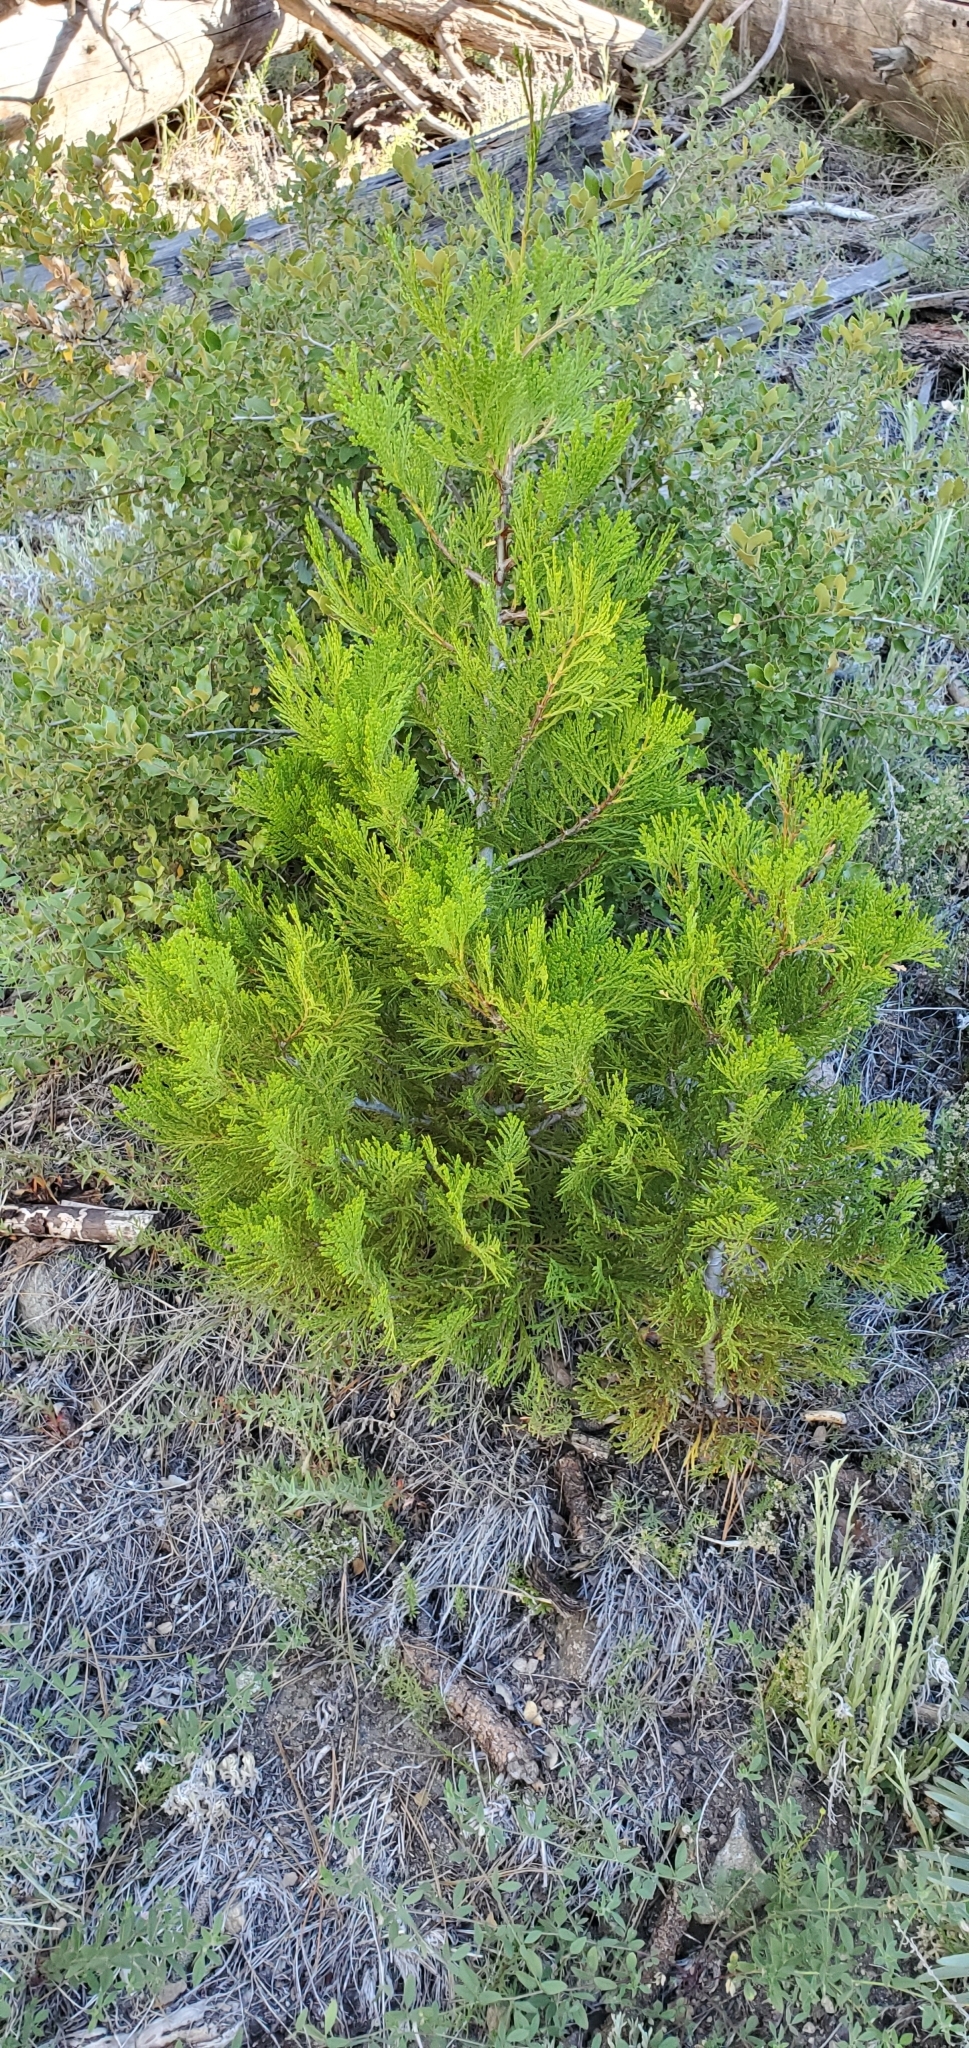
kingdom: Plantae
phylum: Tracheophyta
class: Pinopsida
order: Pinales
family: Cupressaceae
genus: Calocedrus
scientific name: Calocedrus decurrens
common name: Californian incense-cedar
